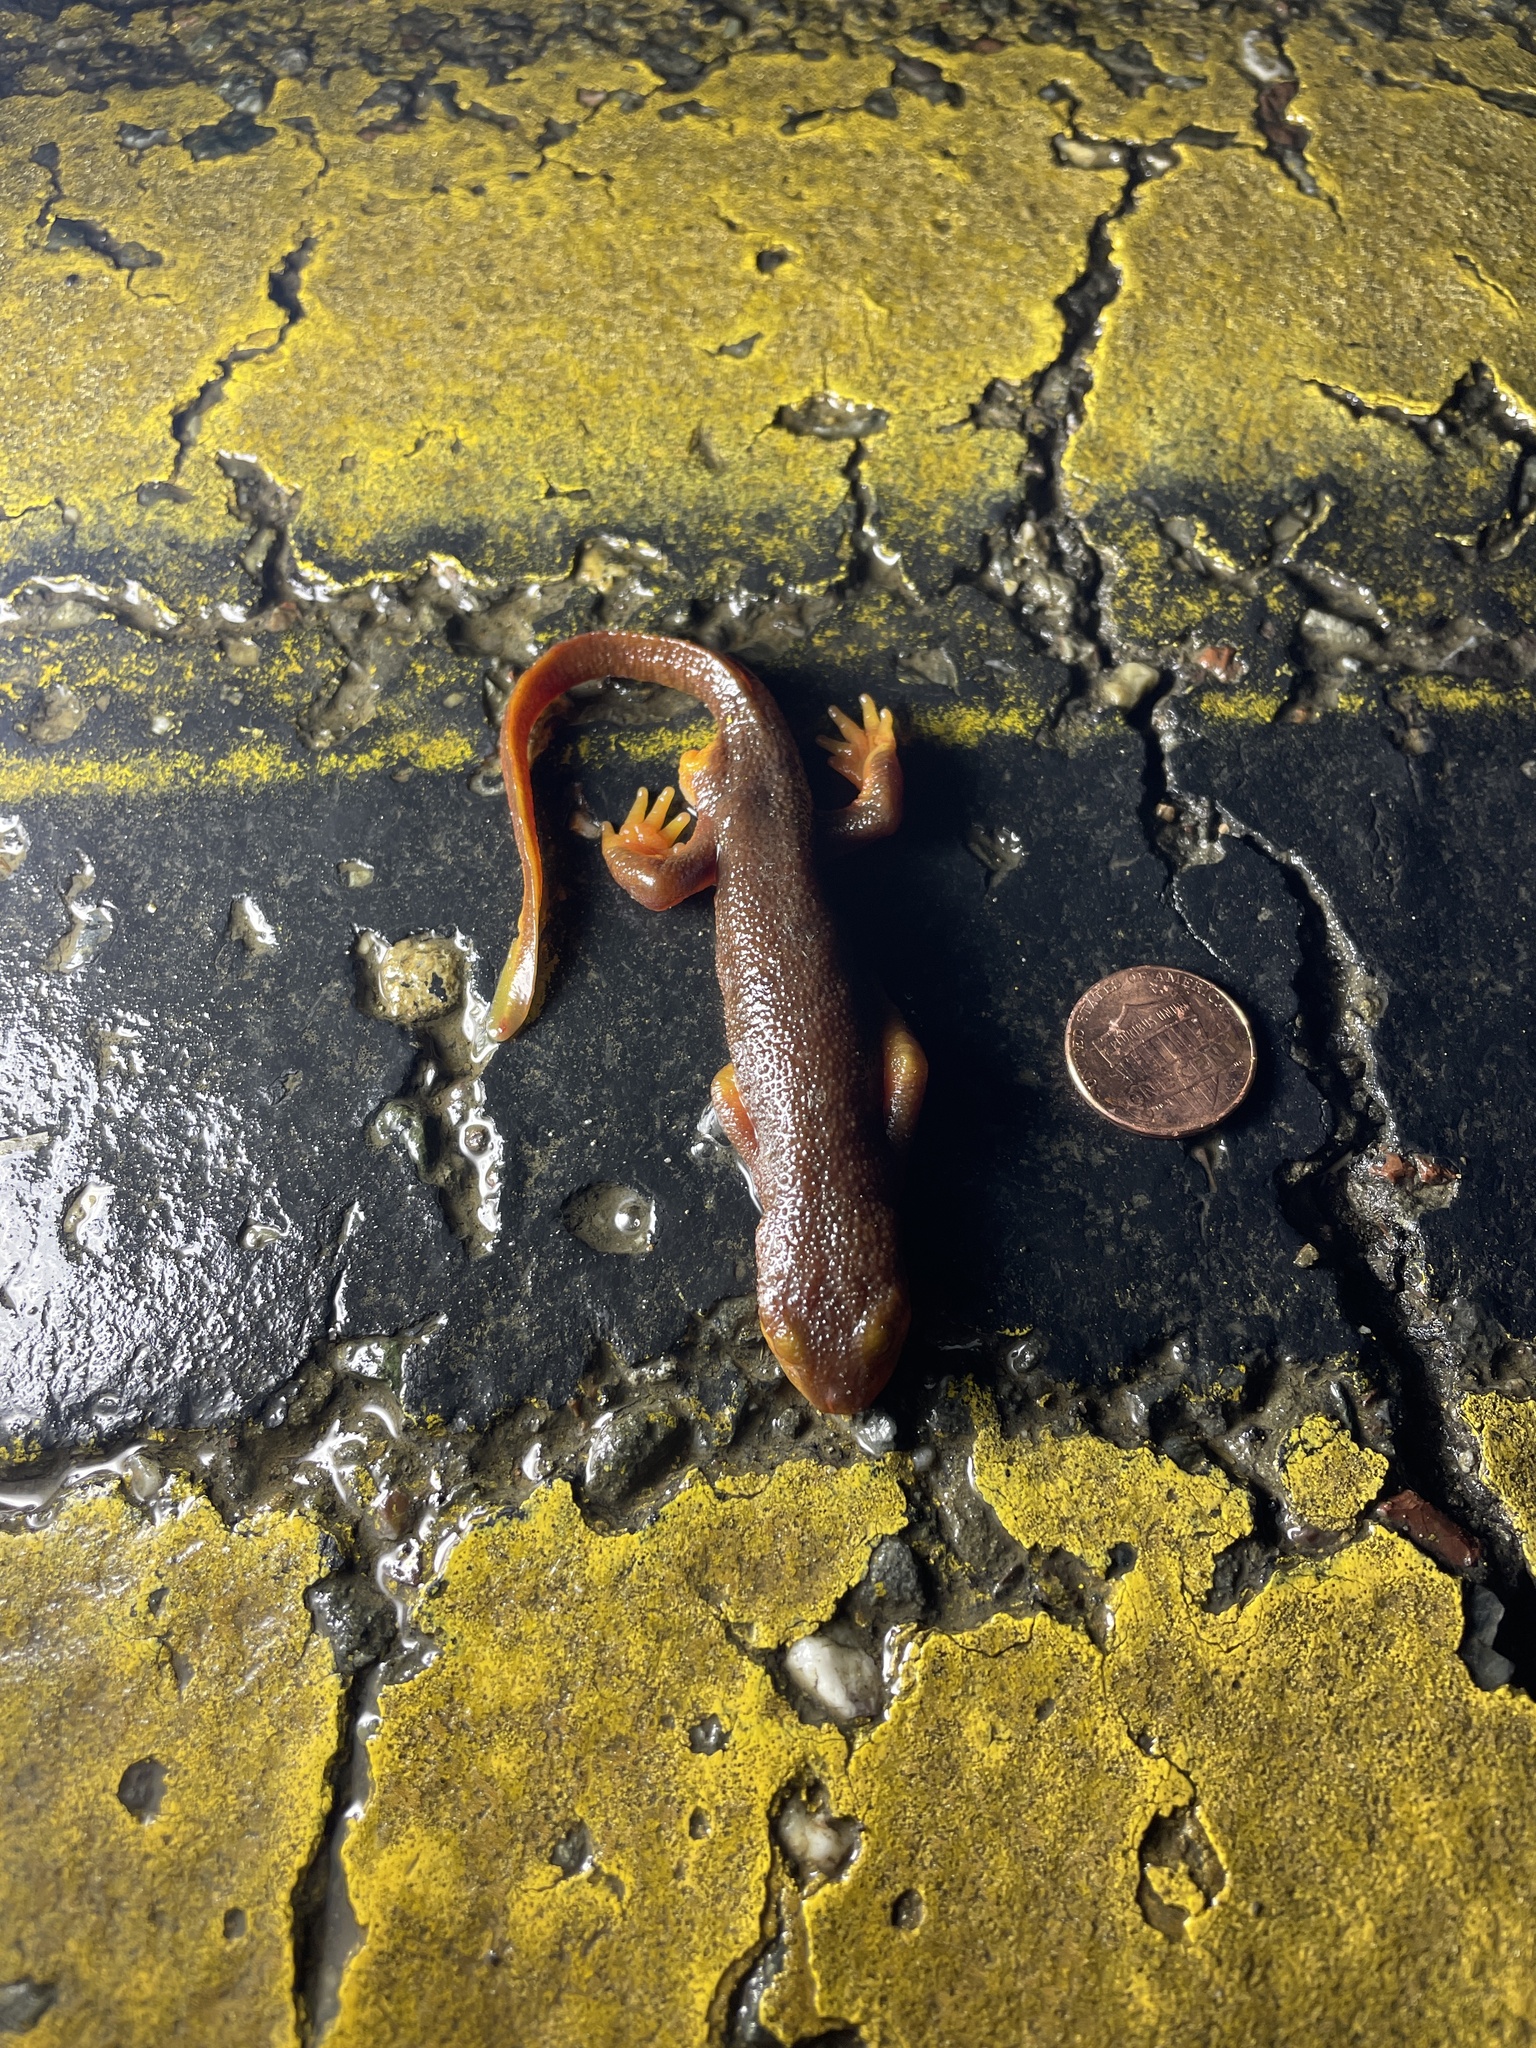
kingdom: Animalia
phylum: Chordata
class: Amphibia
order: Caudata
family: Salamandridae
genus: Taricha
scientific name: Taricha torosa
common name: California newt
